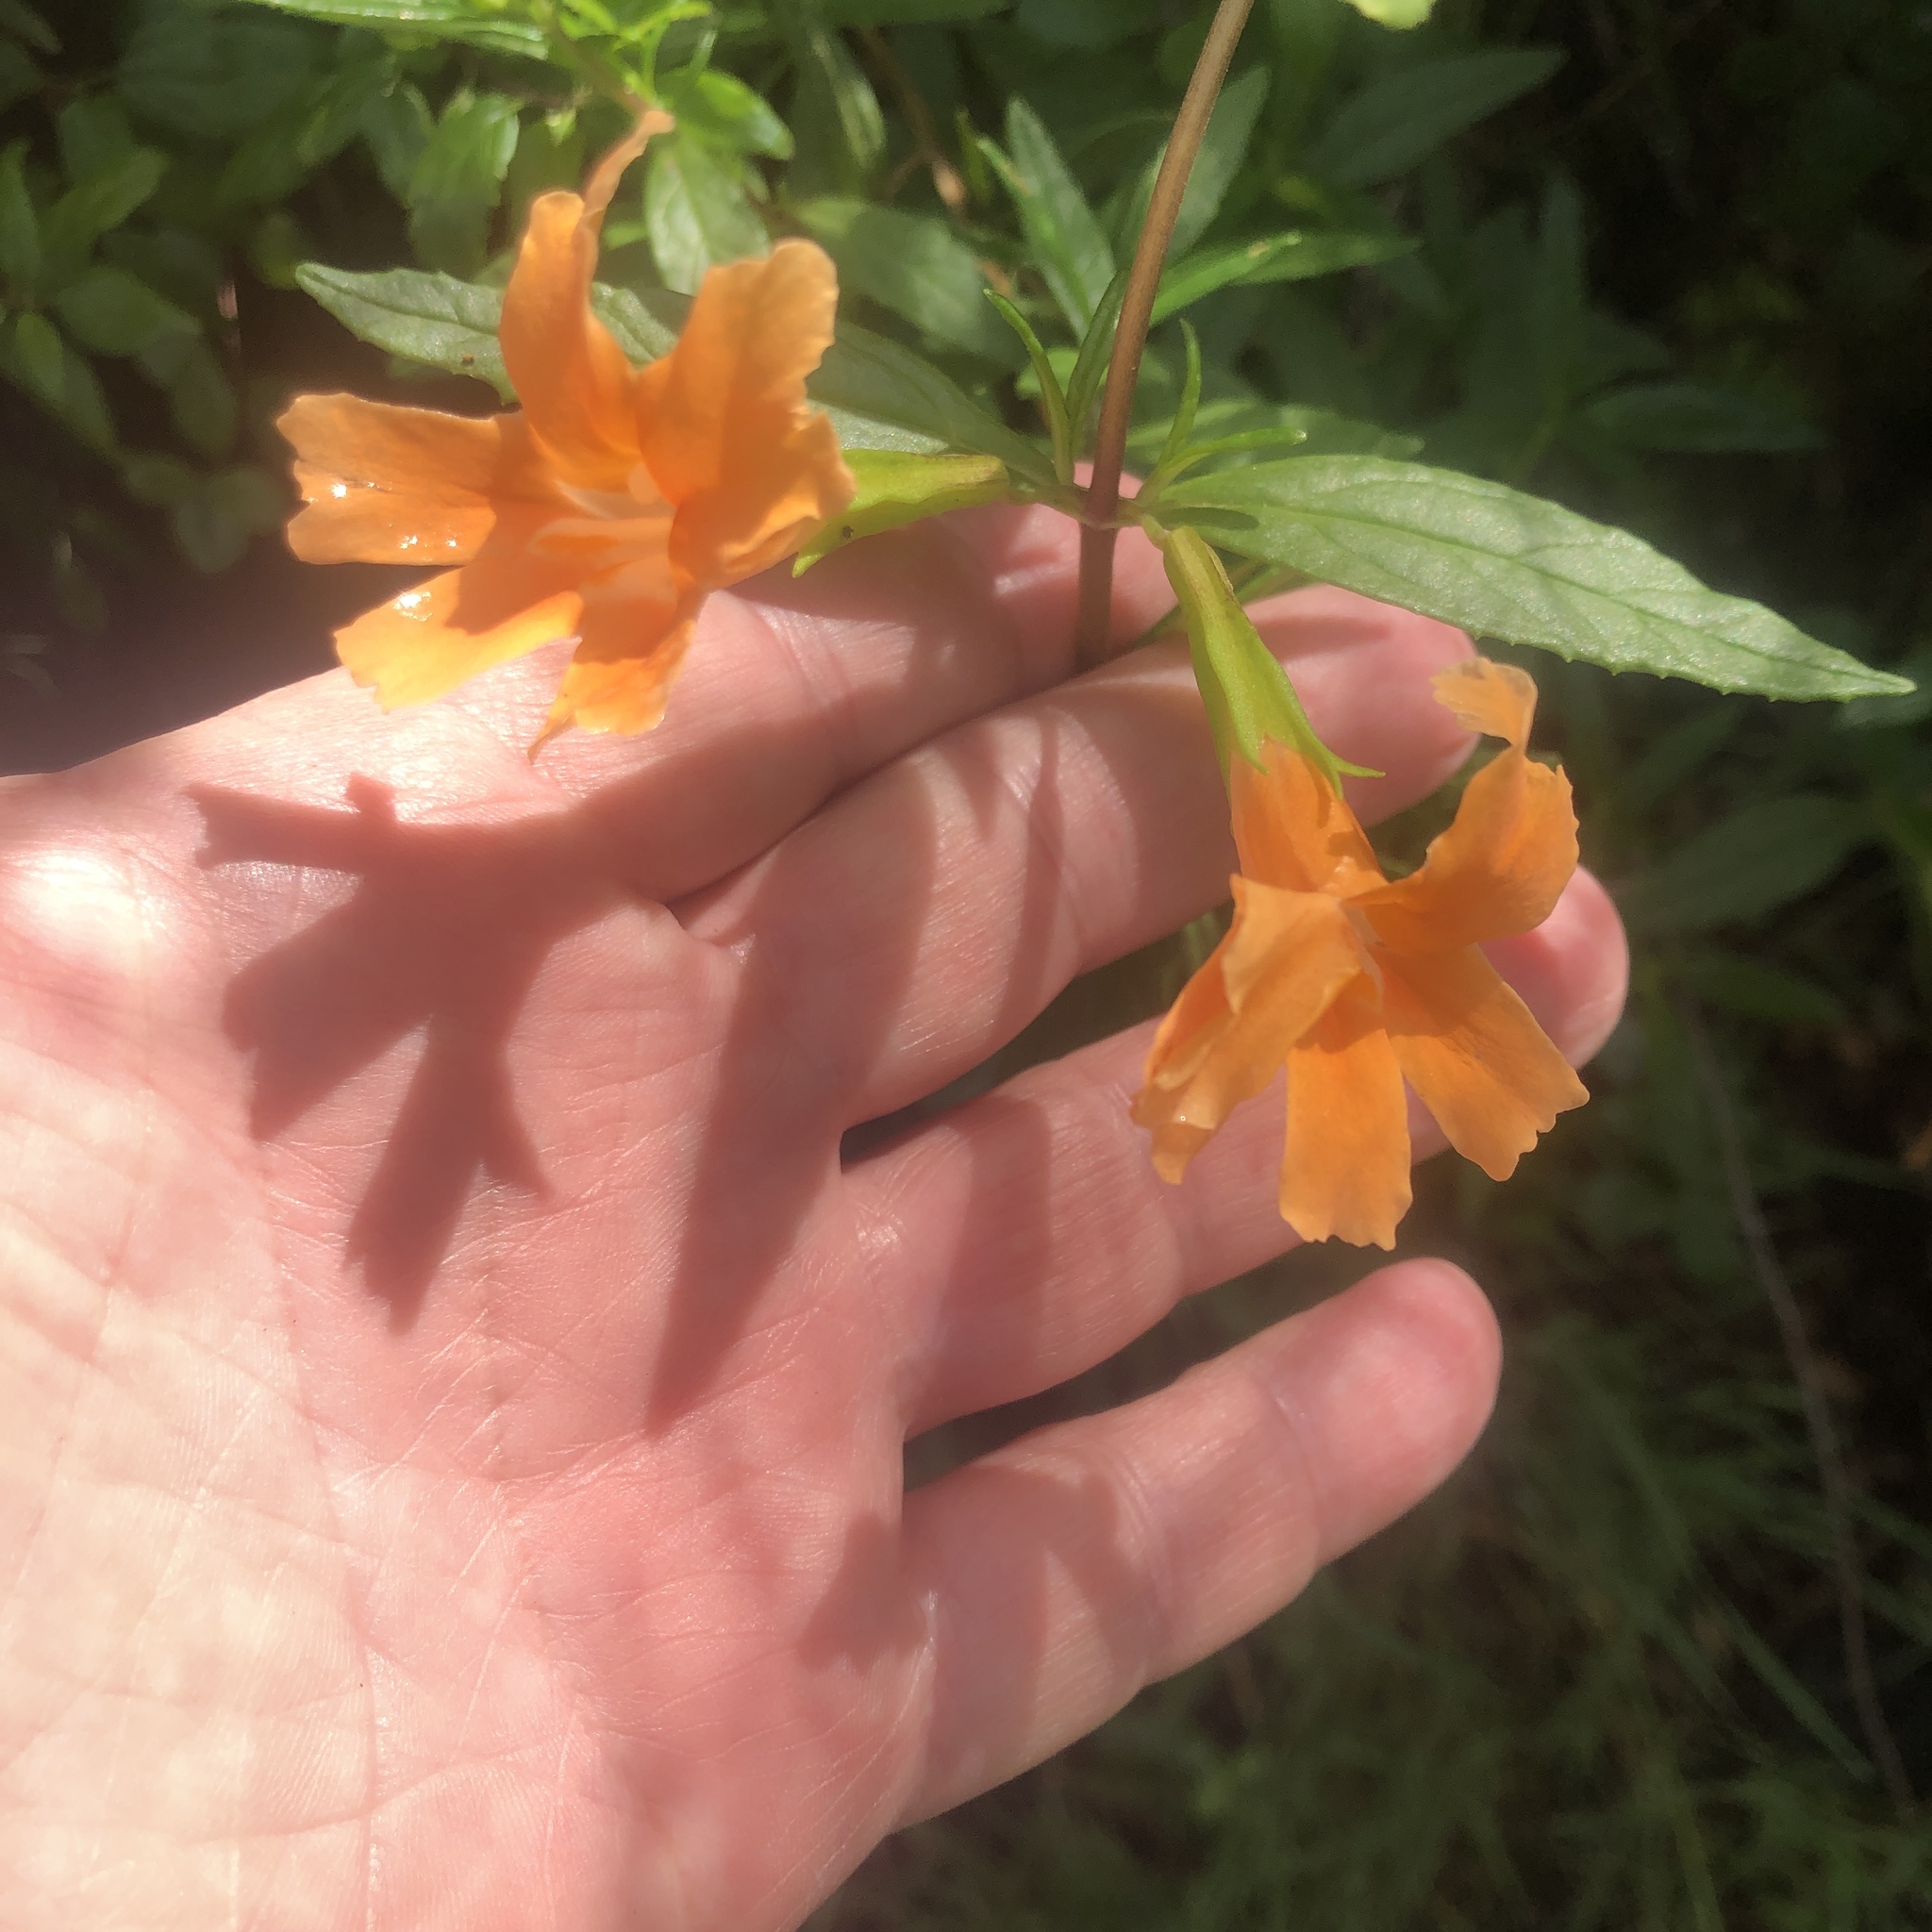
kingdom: Plantae
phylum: Tracheophyta
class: Magnoliopsida
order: Lamiales
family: Phrymaceae
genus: Diplacus
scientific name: Diplacus australis
